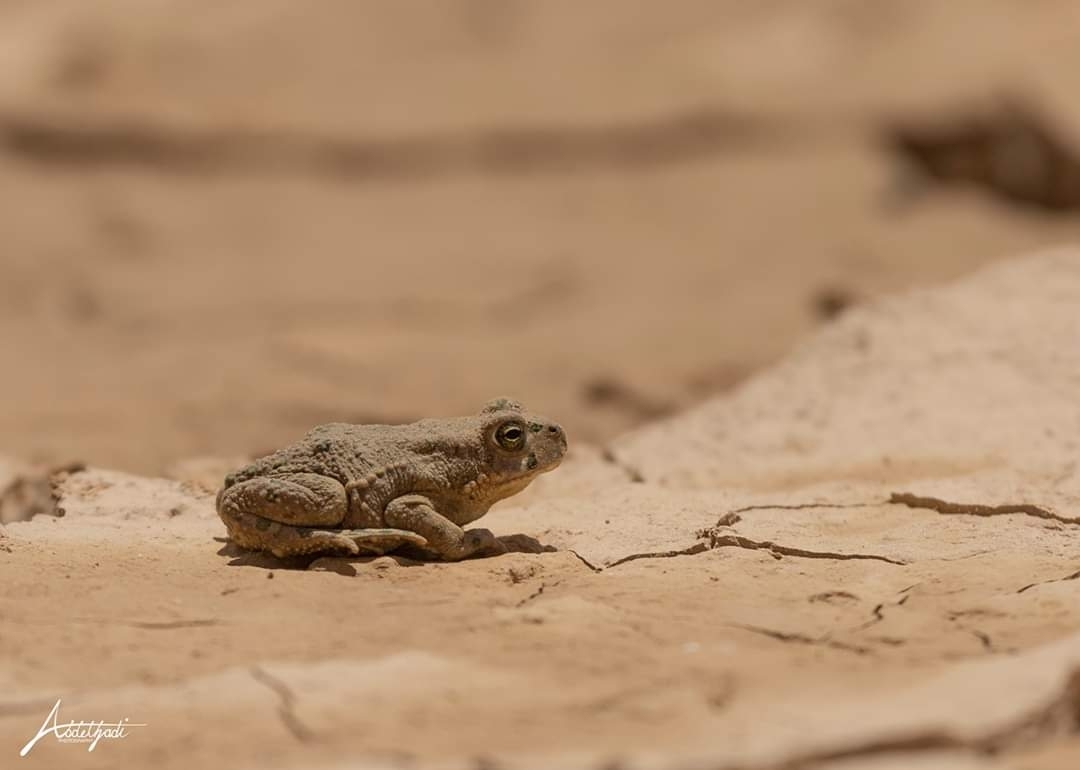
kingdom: Animalia
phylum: Chordata
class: Amphibia
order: Anura
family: Bufonidae
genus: Bufotes
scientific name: Bufotes viridis
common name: European green toad
